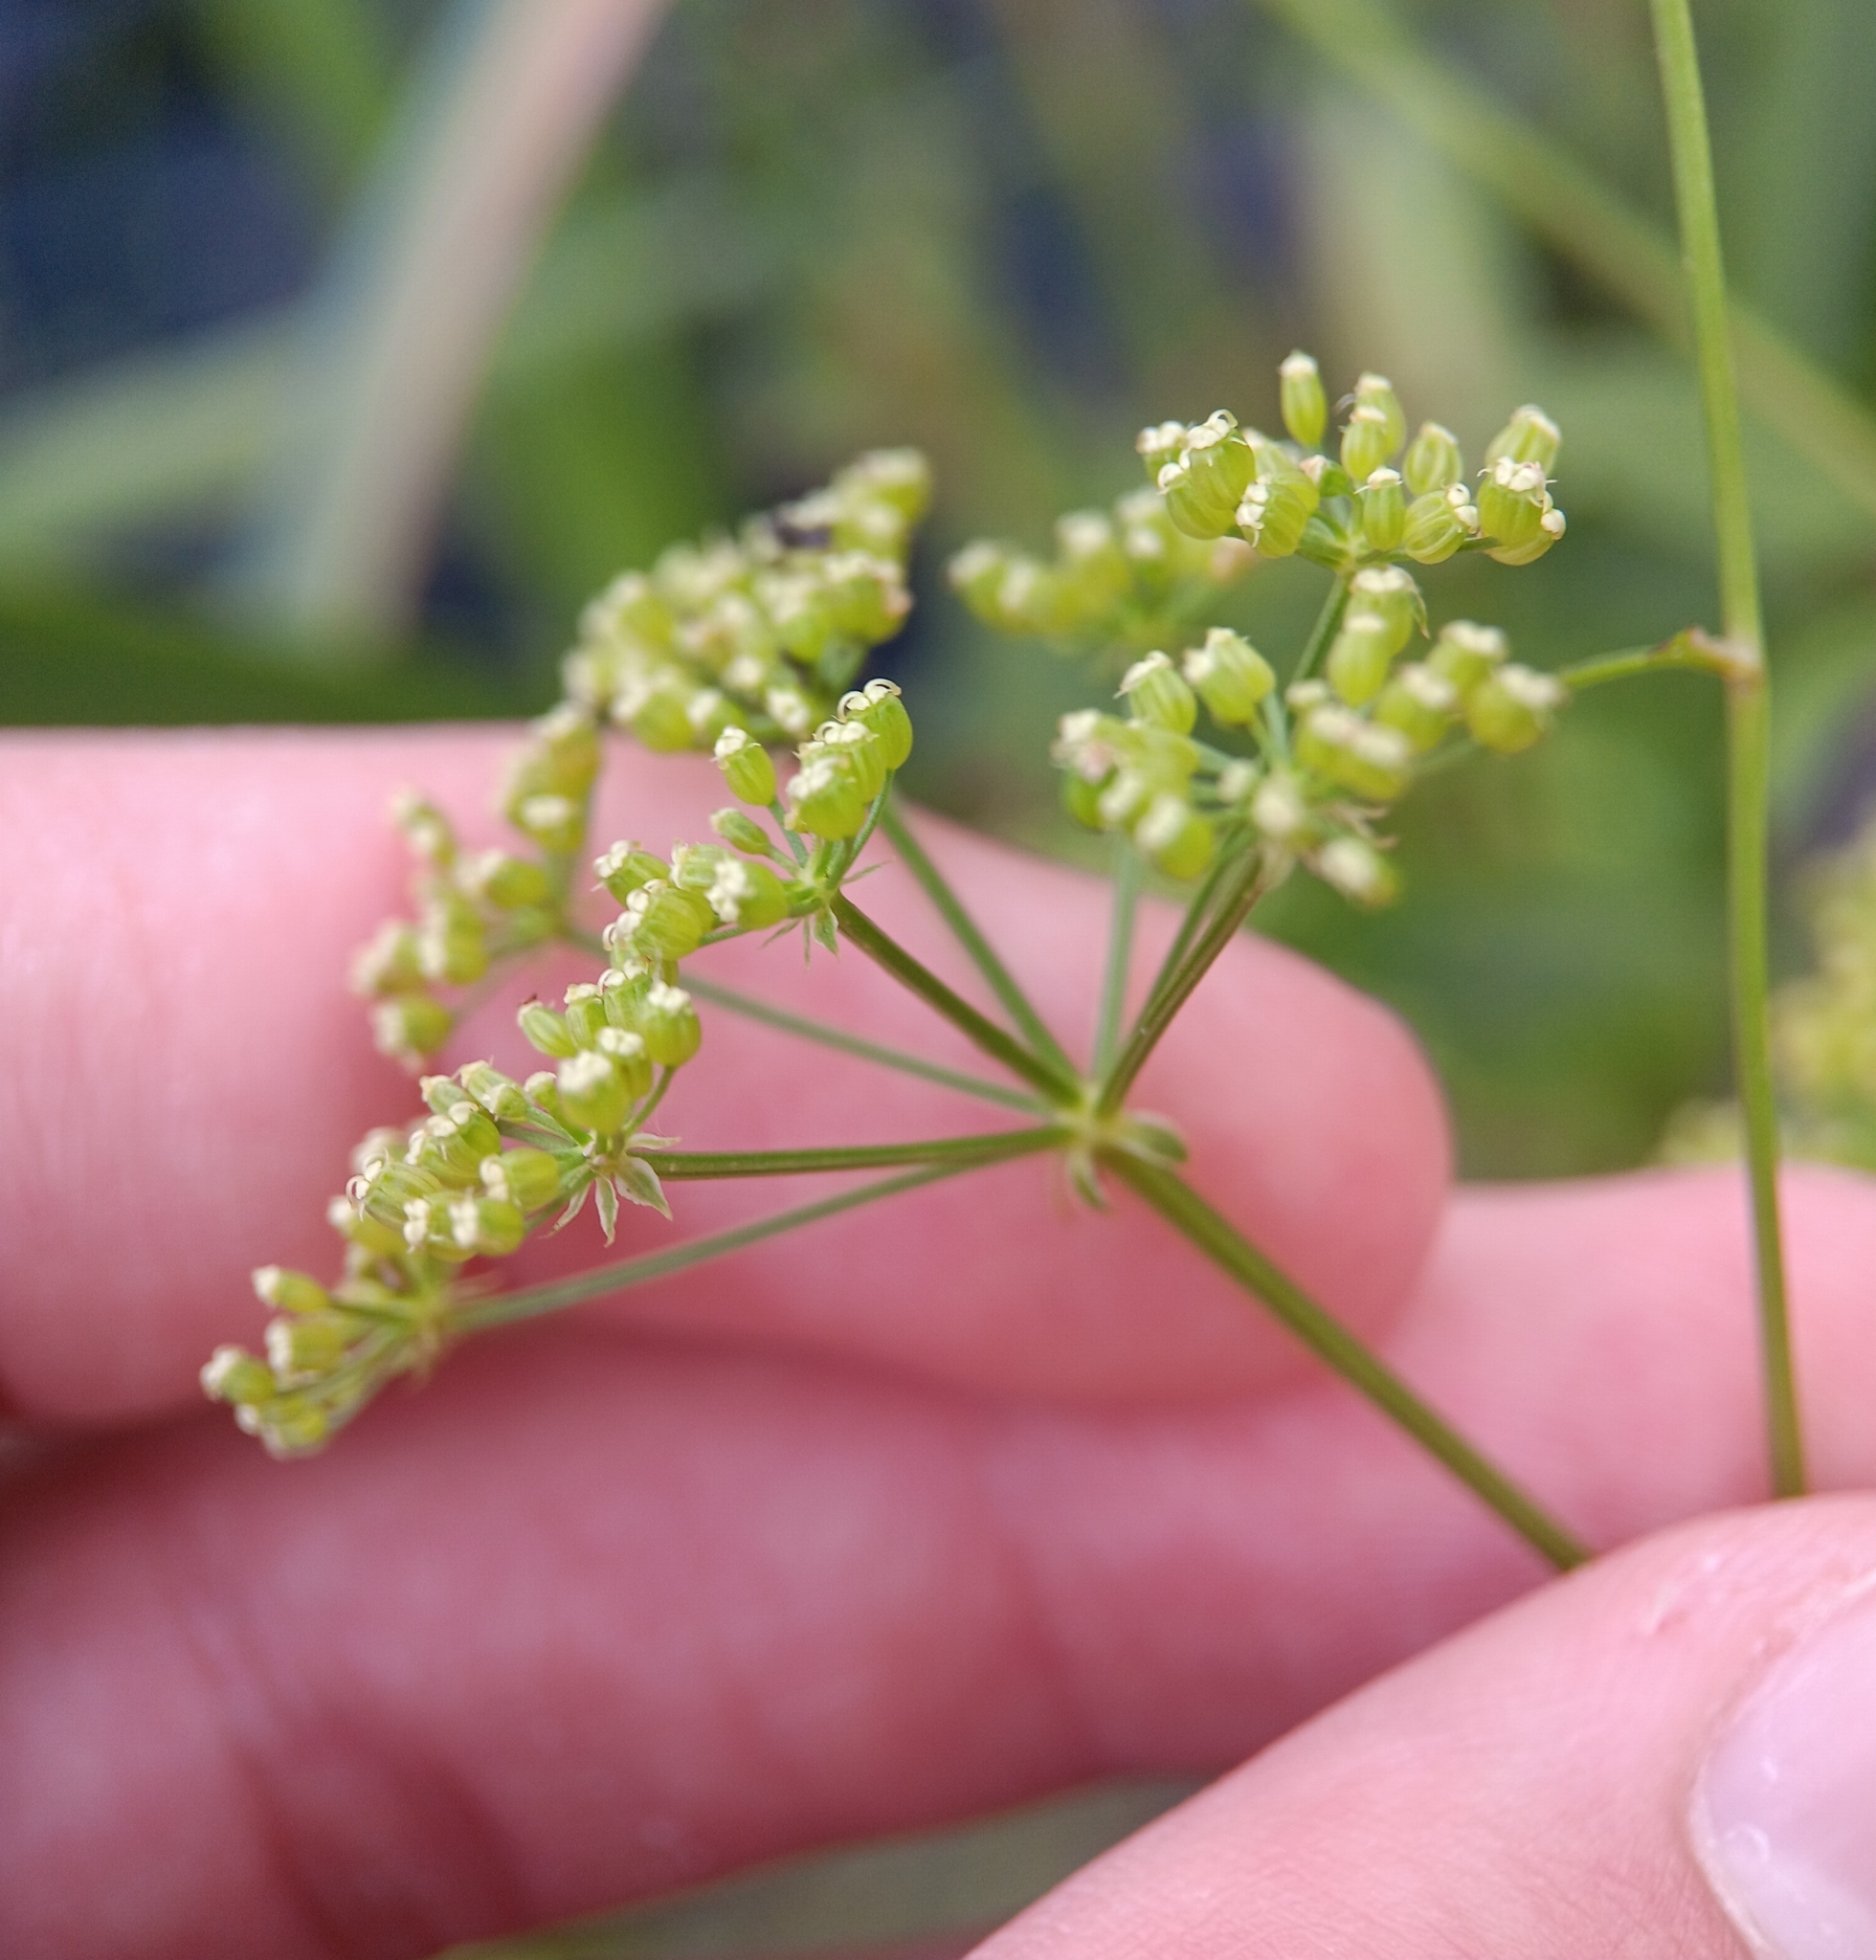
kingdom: Plantae
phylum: Tracheophyta
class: Magnoliopsida
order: Apiales
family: Apiaceae
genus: Sium
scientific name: Sium suave
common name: Hemlock water-parsnip
